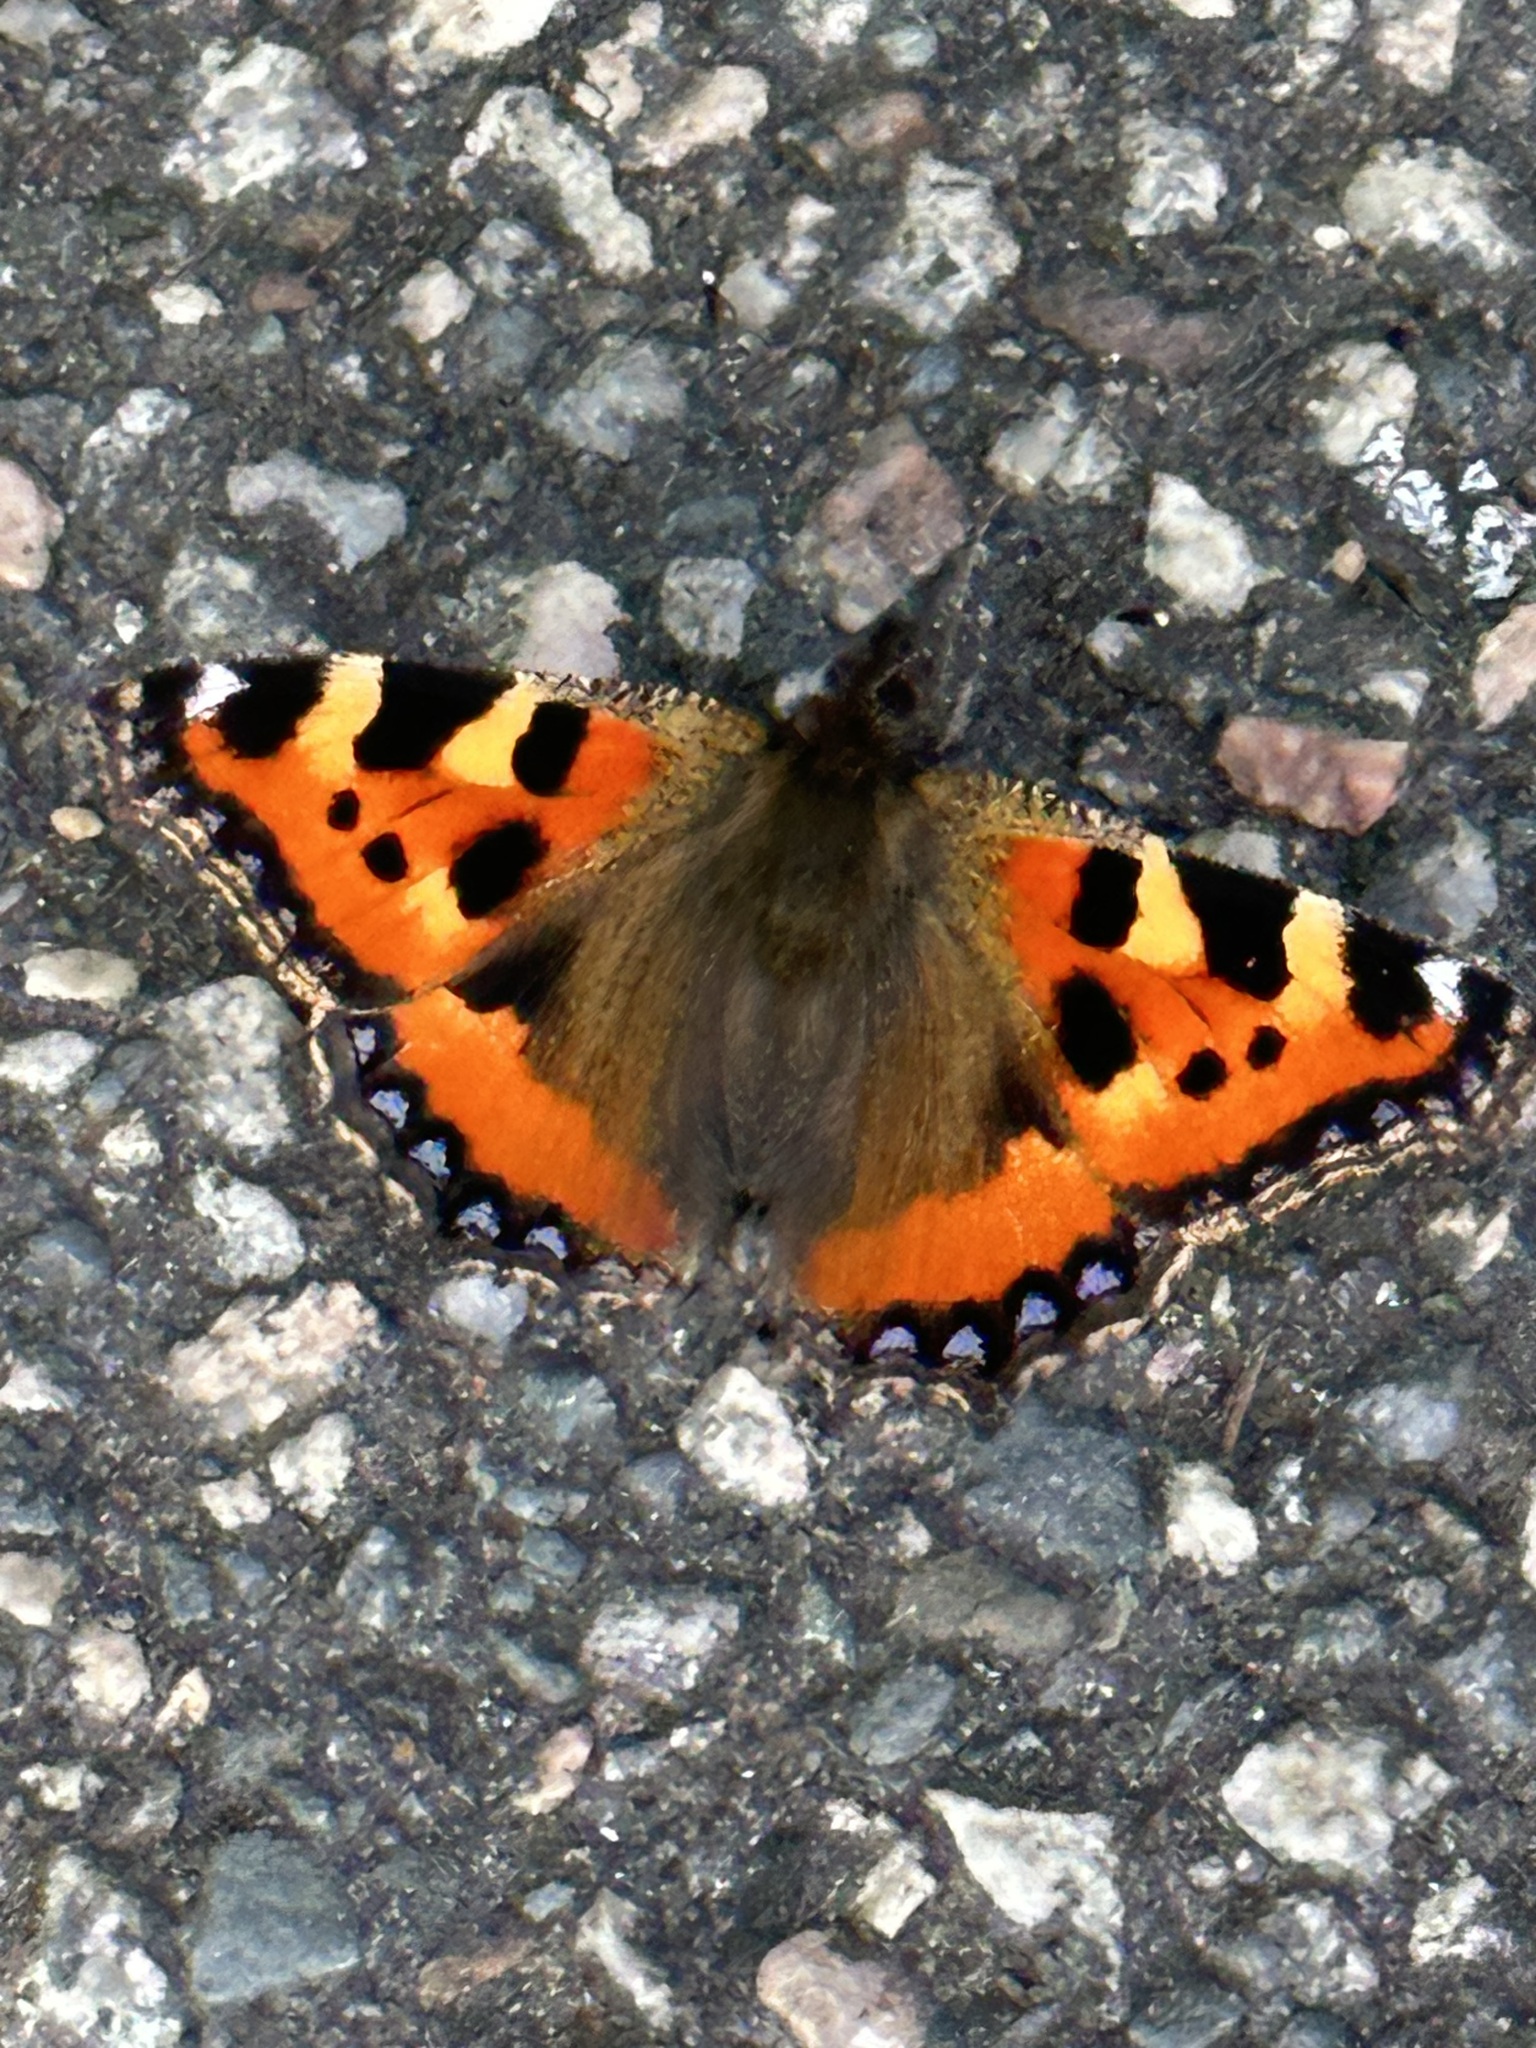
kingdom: Animalia
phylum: Arthropoda
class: Insecta
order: Lepidoptera
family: Nymphalidae
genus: Aglais
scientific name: Aglais urticae
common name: Small tortoiseshell
